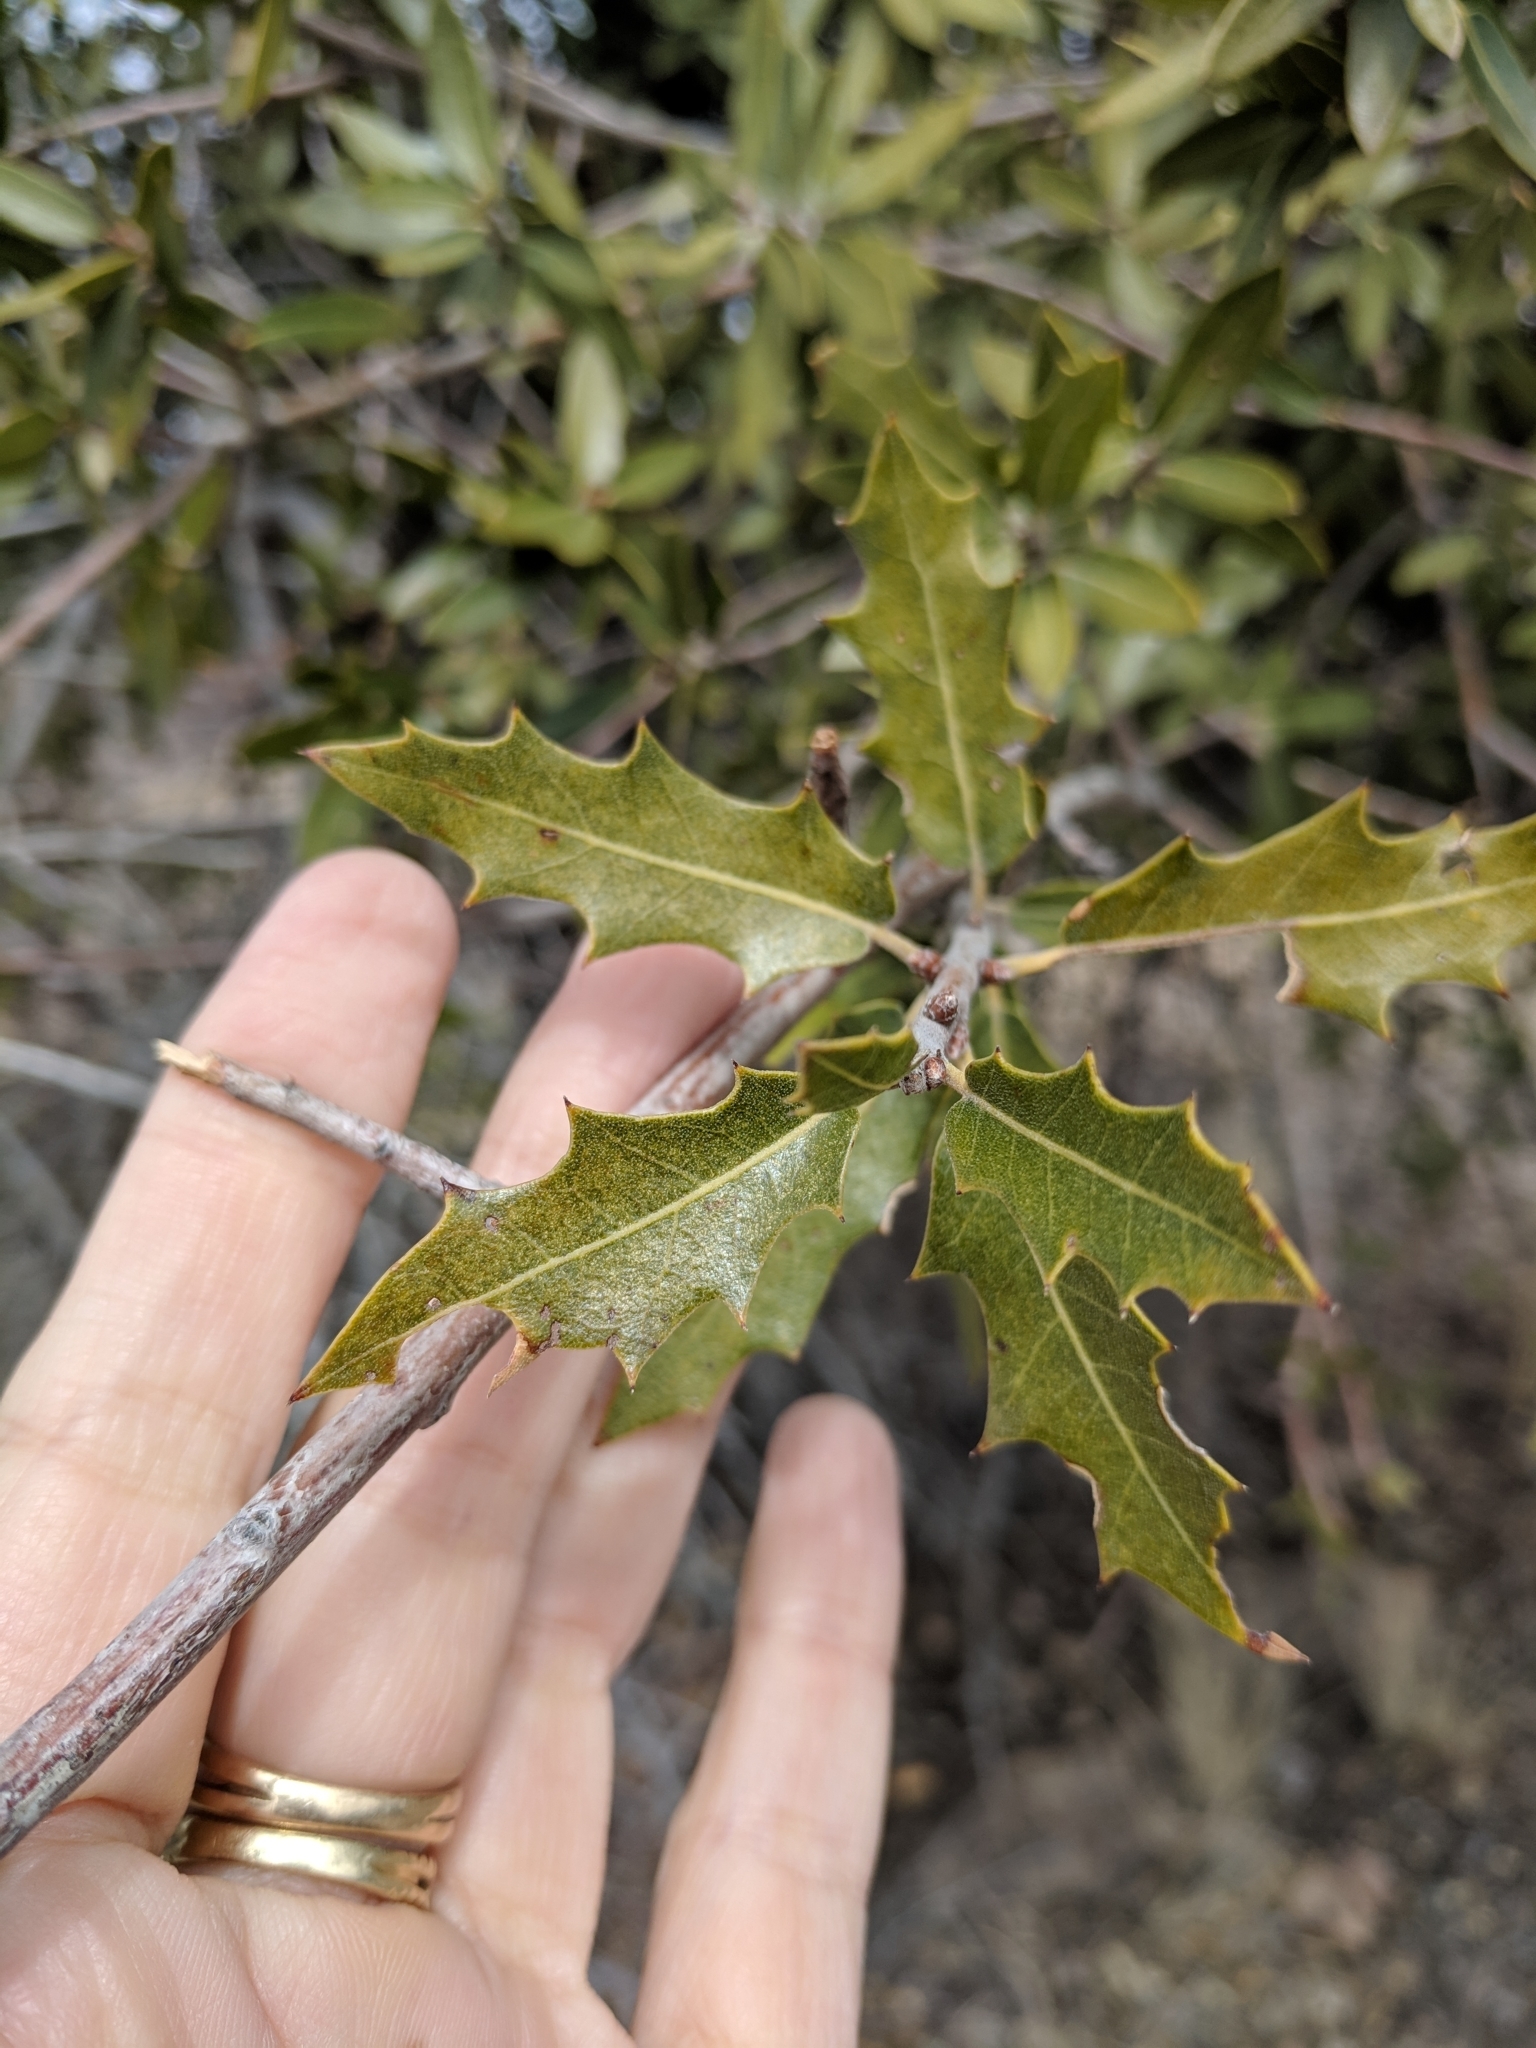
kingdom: Plantae
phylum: Tracheophyta
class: Magnoliopsida
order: Fagales
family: Fagaceae
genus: Quercus
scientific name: Quercus emoryi
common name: Emory oak
